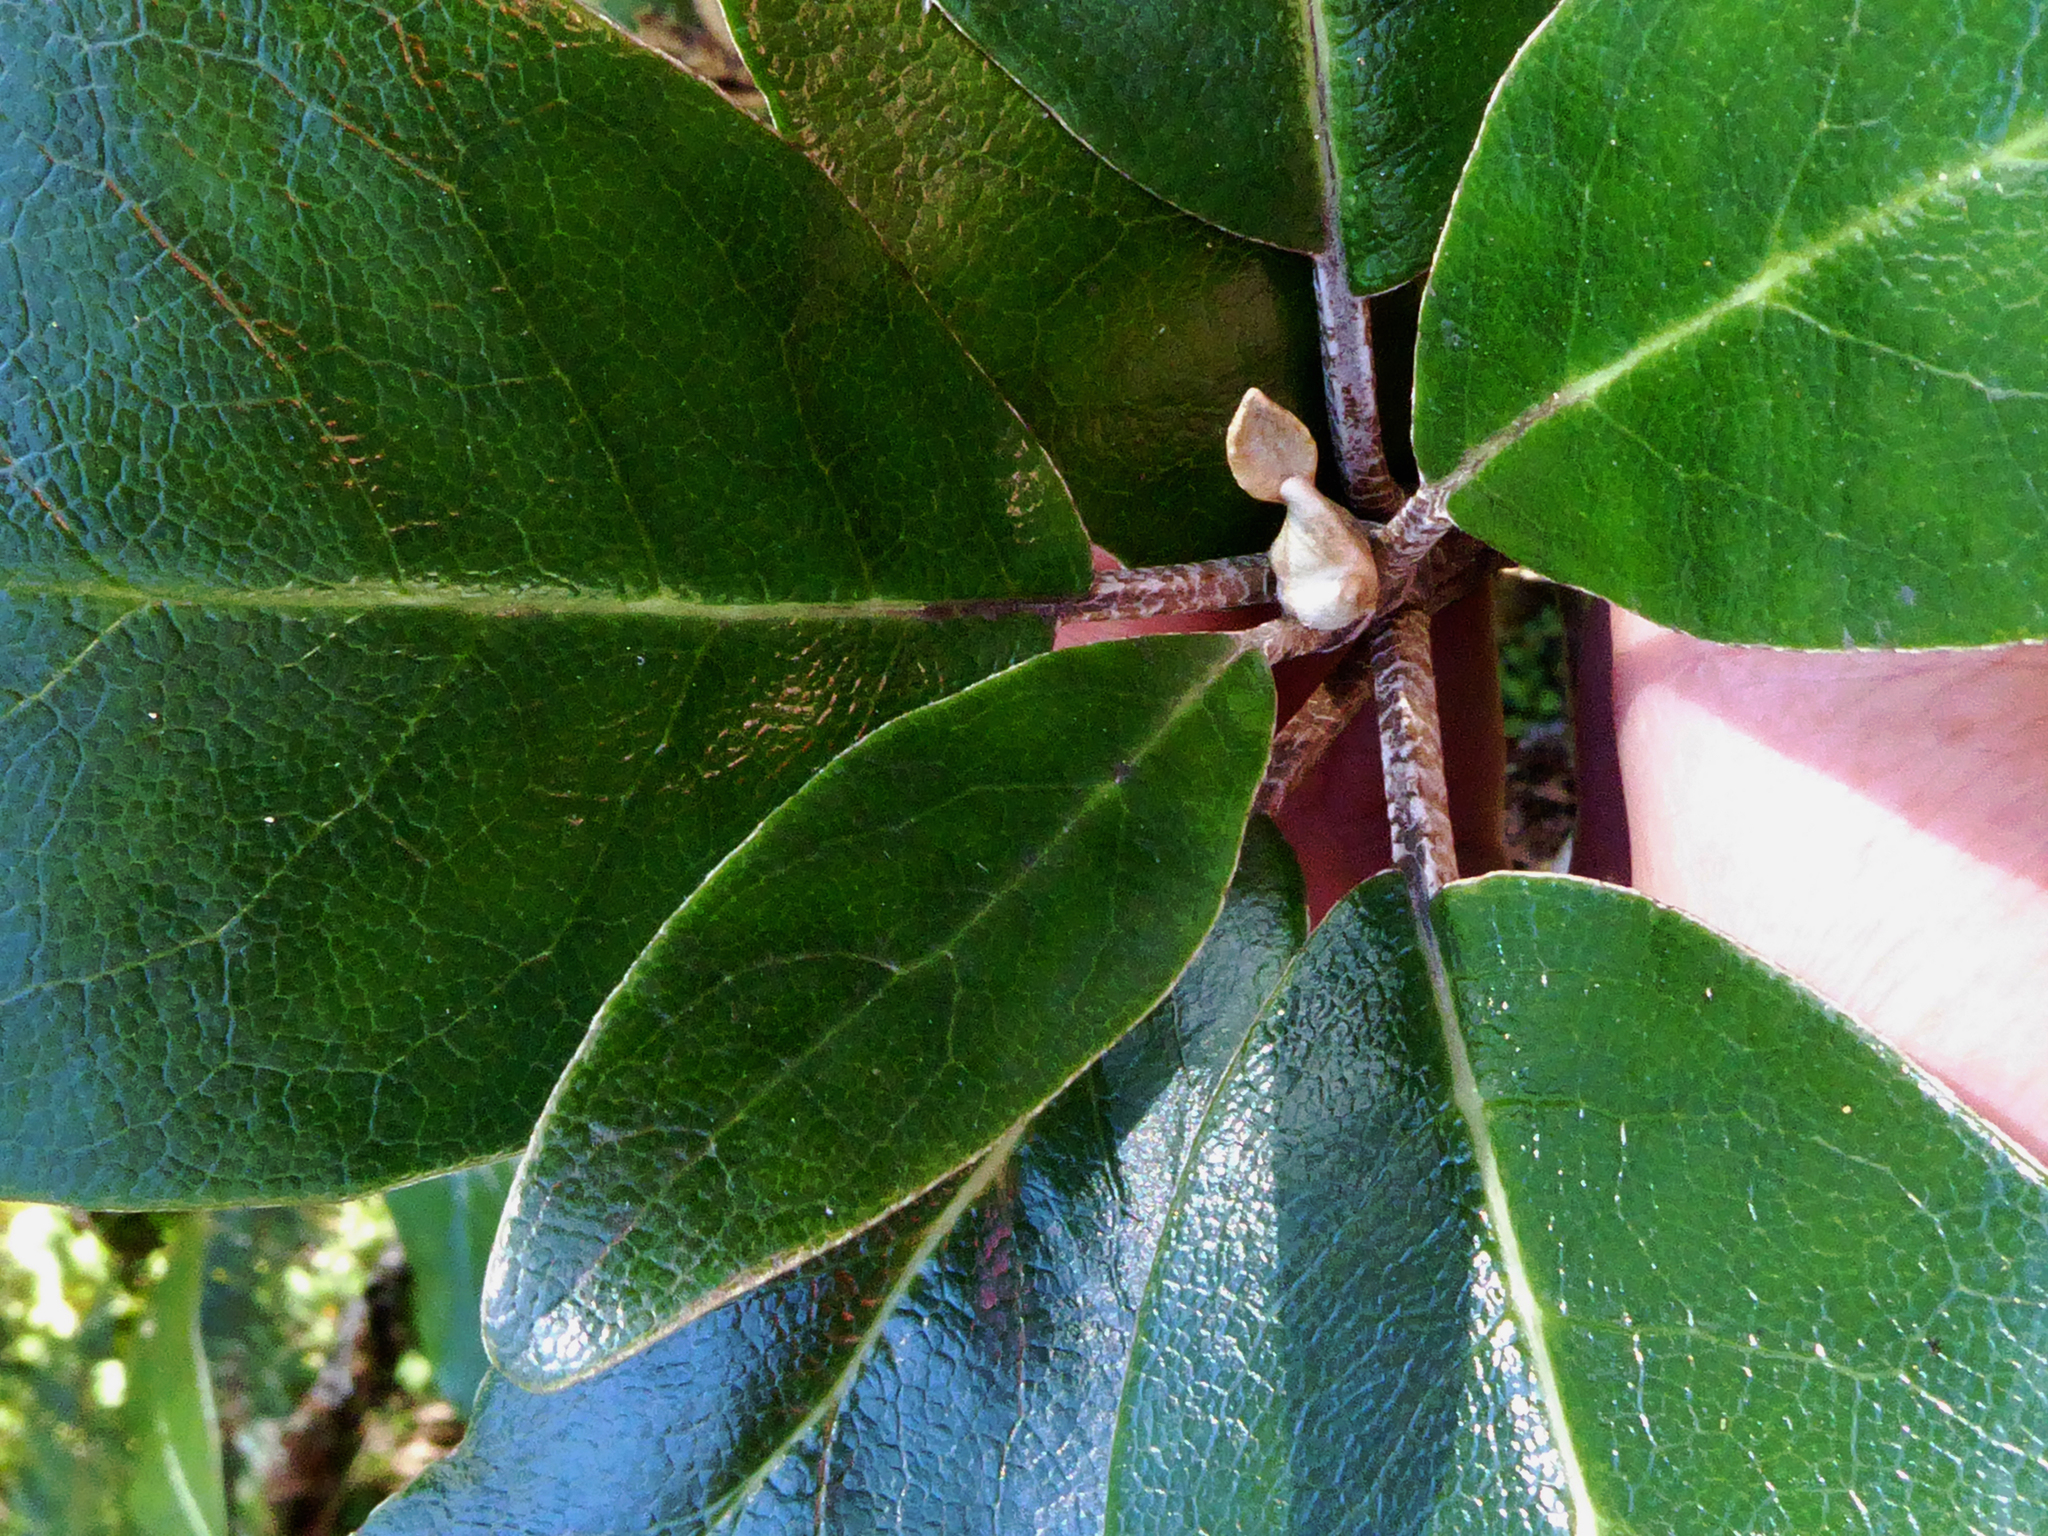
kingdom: Plantae
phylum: Tracheophyta
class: Magnoliopsida
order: Asterales
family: Asteraceae
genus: Brachyglottis
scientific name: Brachyglottis buchananii
